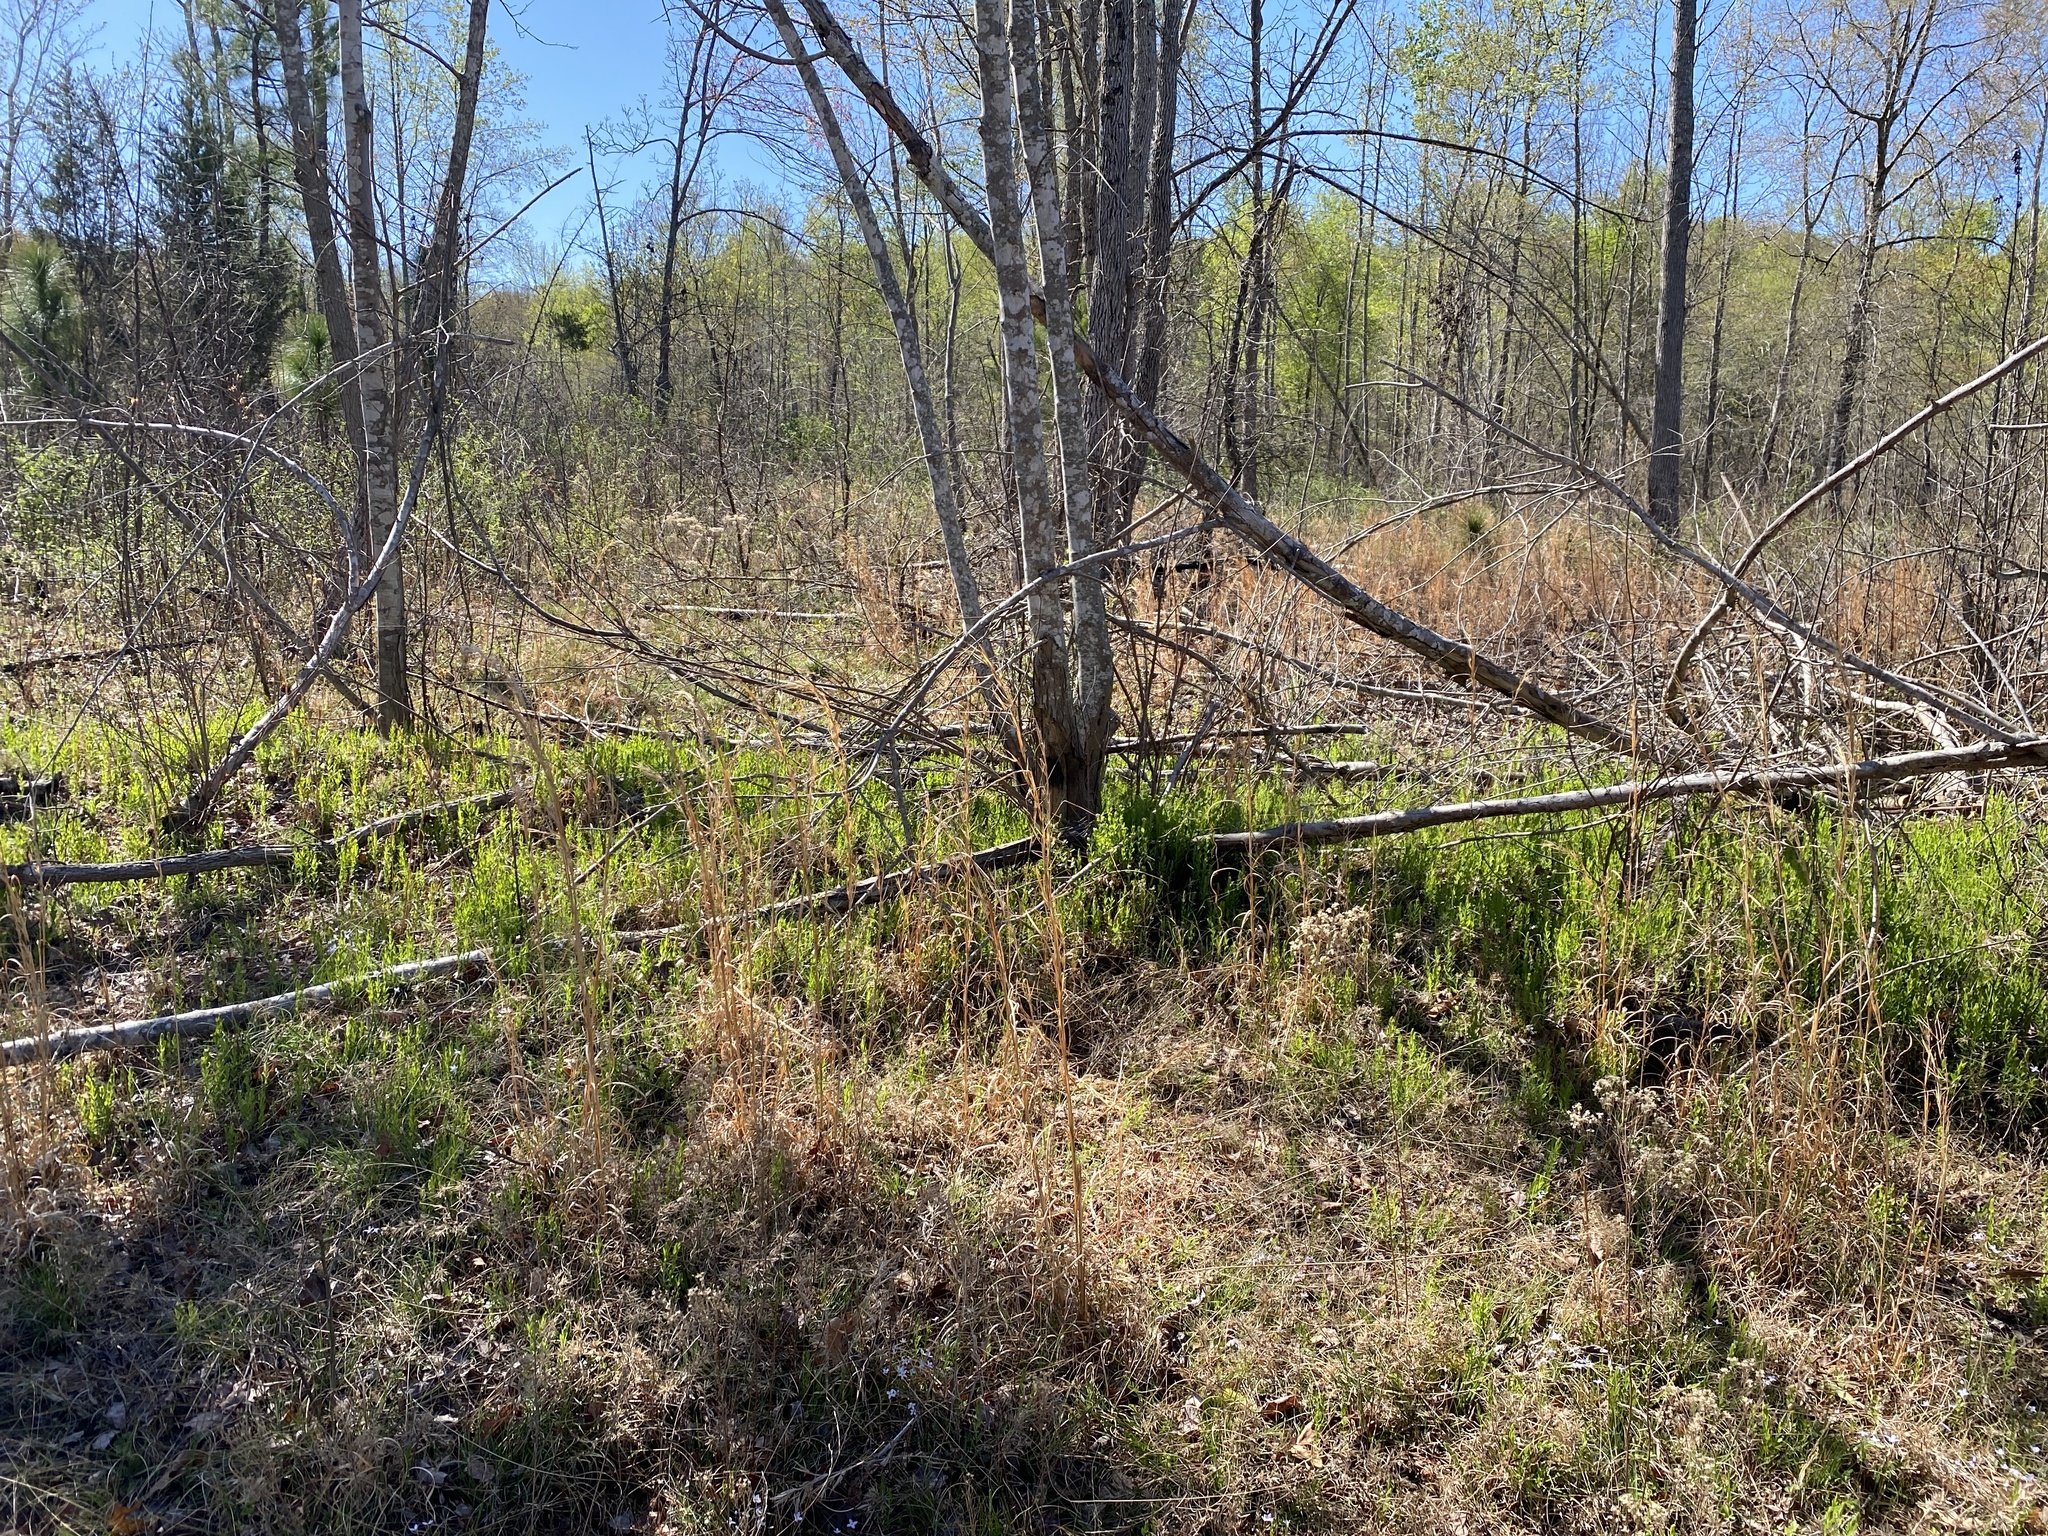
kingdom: Plantae
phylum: Tracheophyta
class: Magnoliopsida
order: Santalales
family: Comandraceae
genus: Comandra
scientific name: Comandra umbellata
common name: Bastard toadflax
